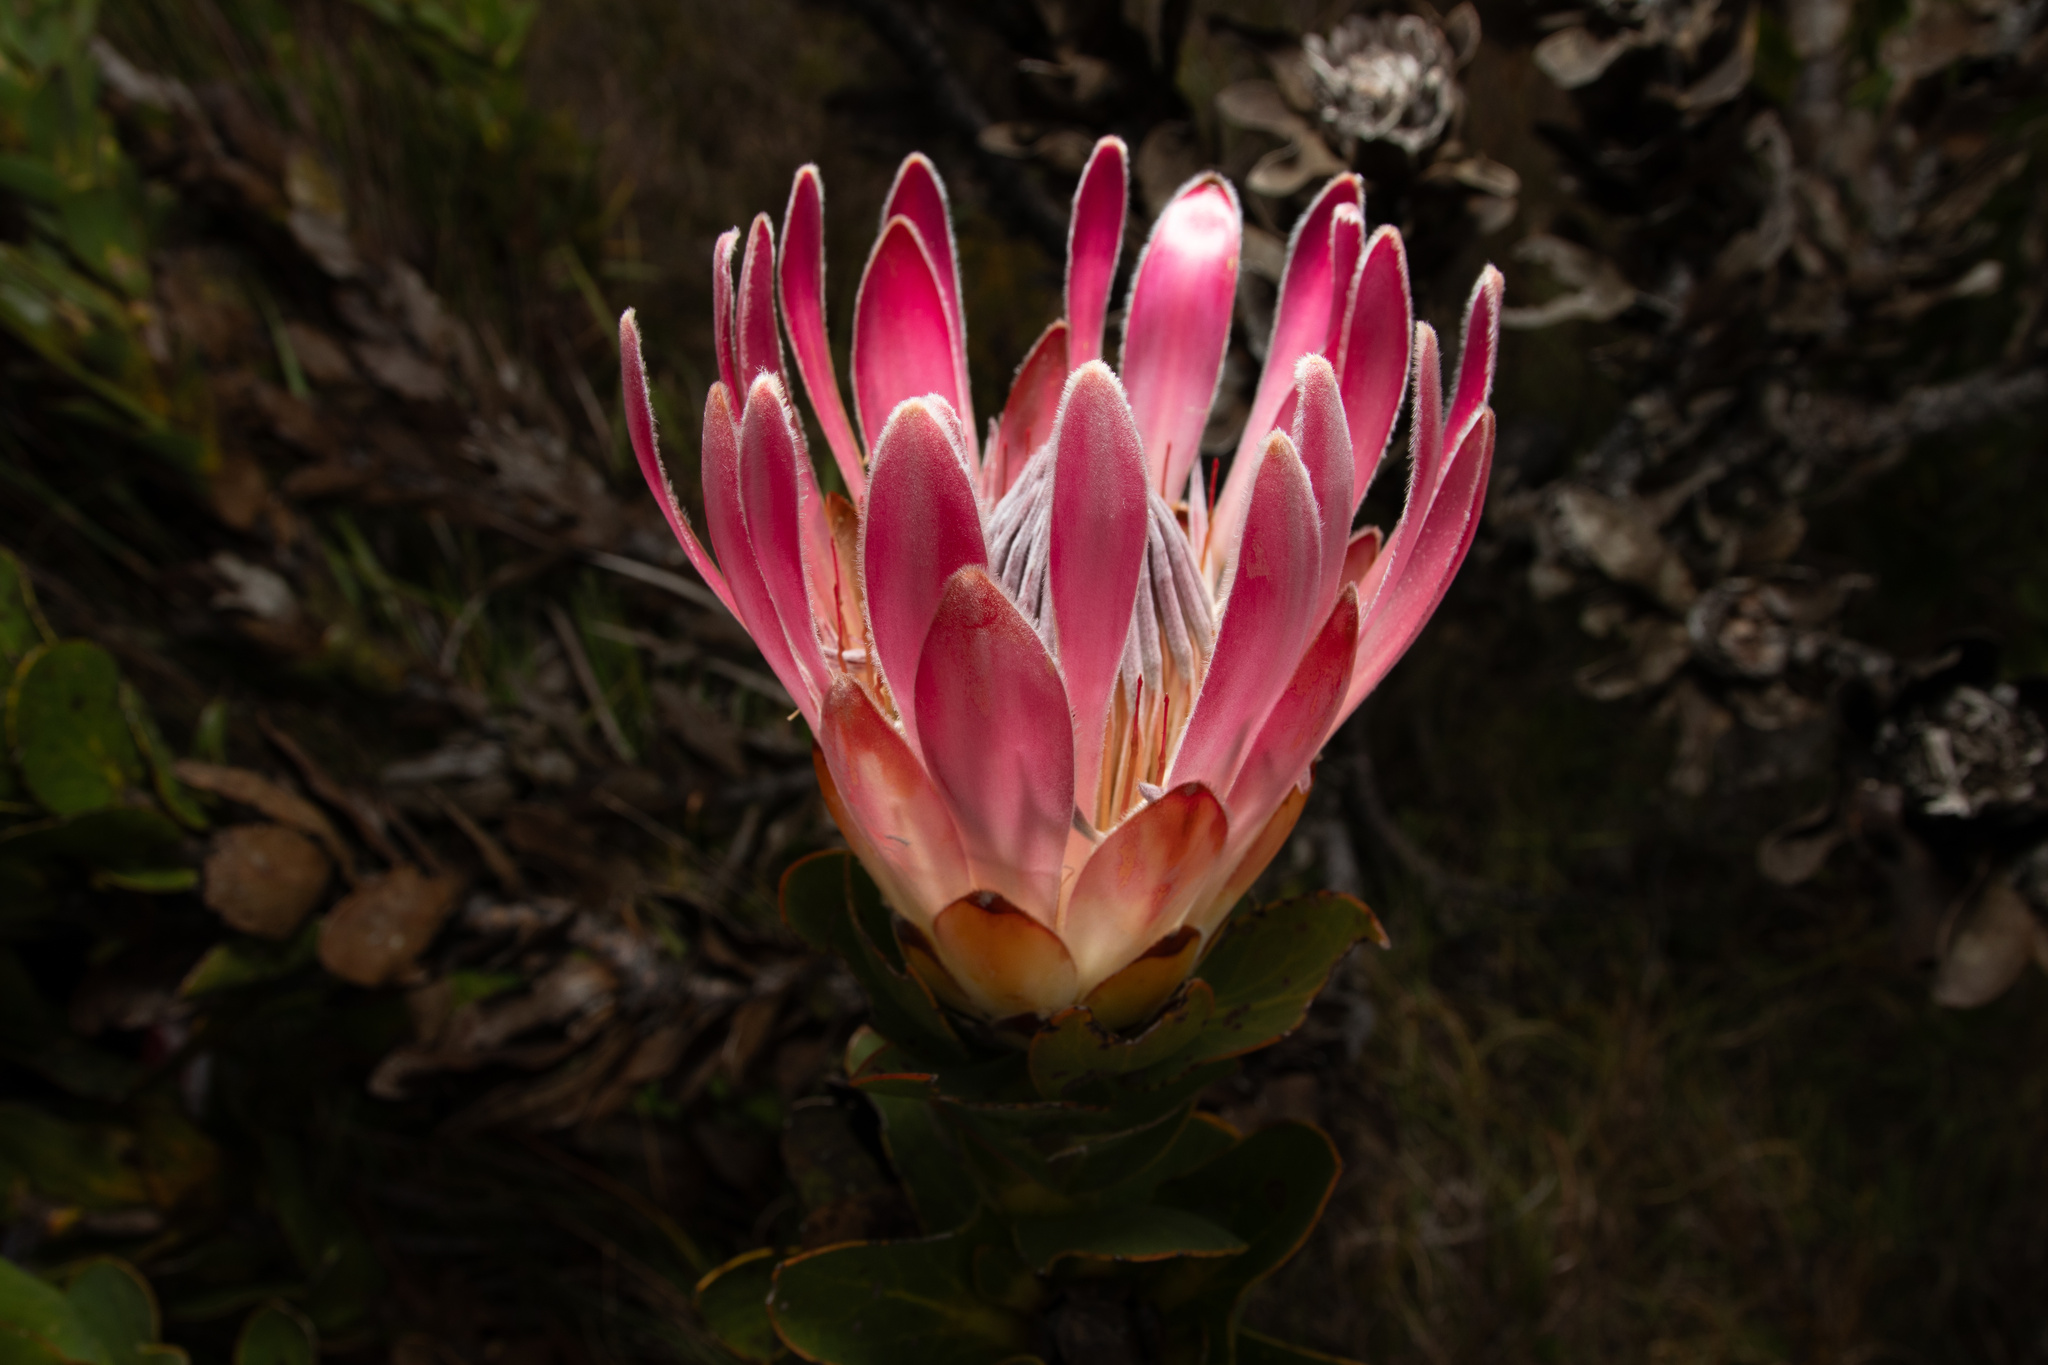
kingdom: Plantae
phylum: Tracheophyta
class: Magnoliopsida
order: Proteales
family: Proteaceae
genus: Protea
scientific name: Protea compacta
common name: Bot river protea
